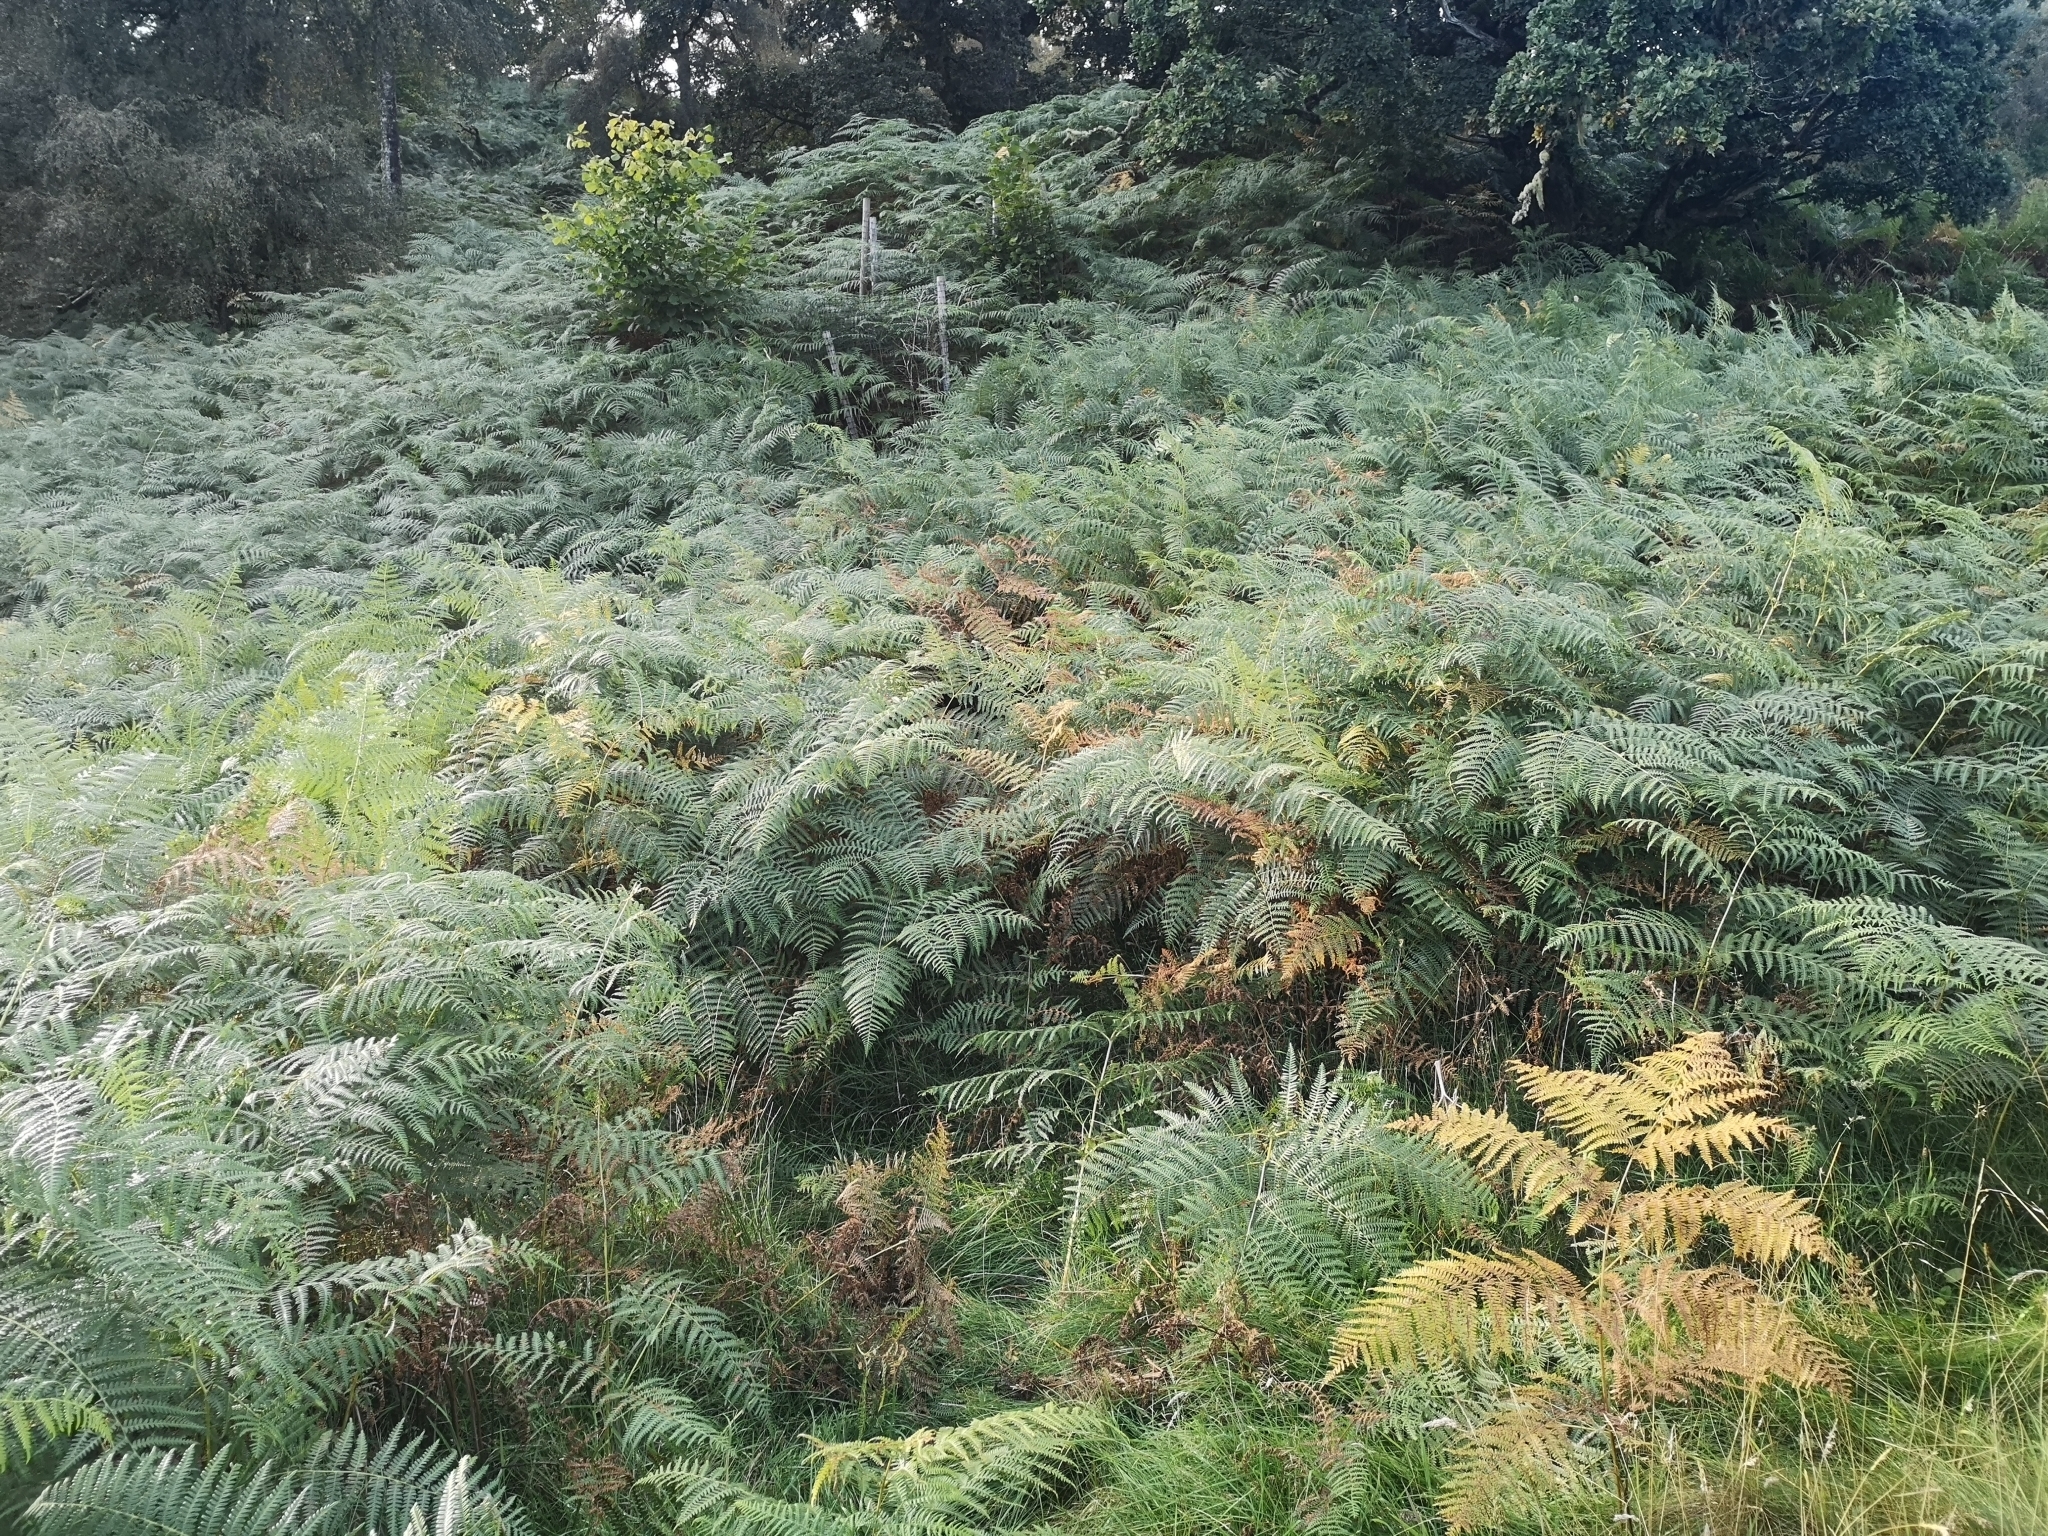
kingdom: Plantae
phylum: Tracheophyta
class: Polypodiopsida
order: Polypodiales
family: Dennstaedtiaceae
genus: Pteridium
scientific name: Pteridium aquilinum
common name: Bracken
